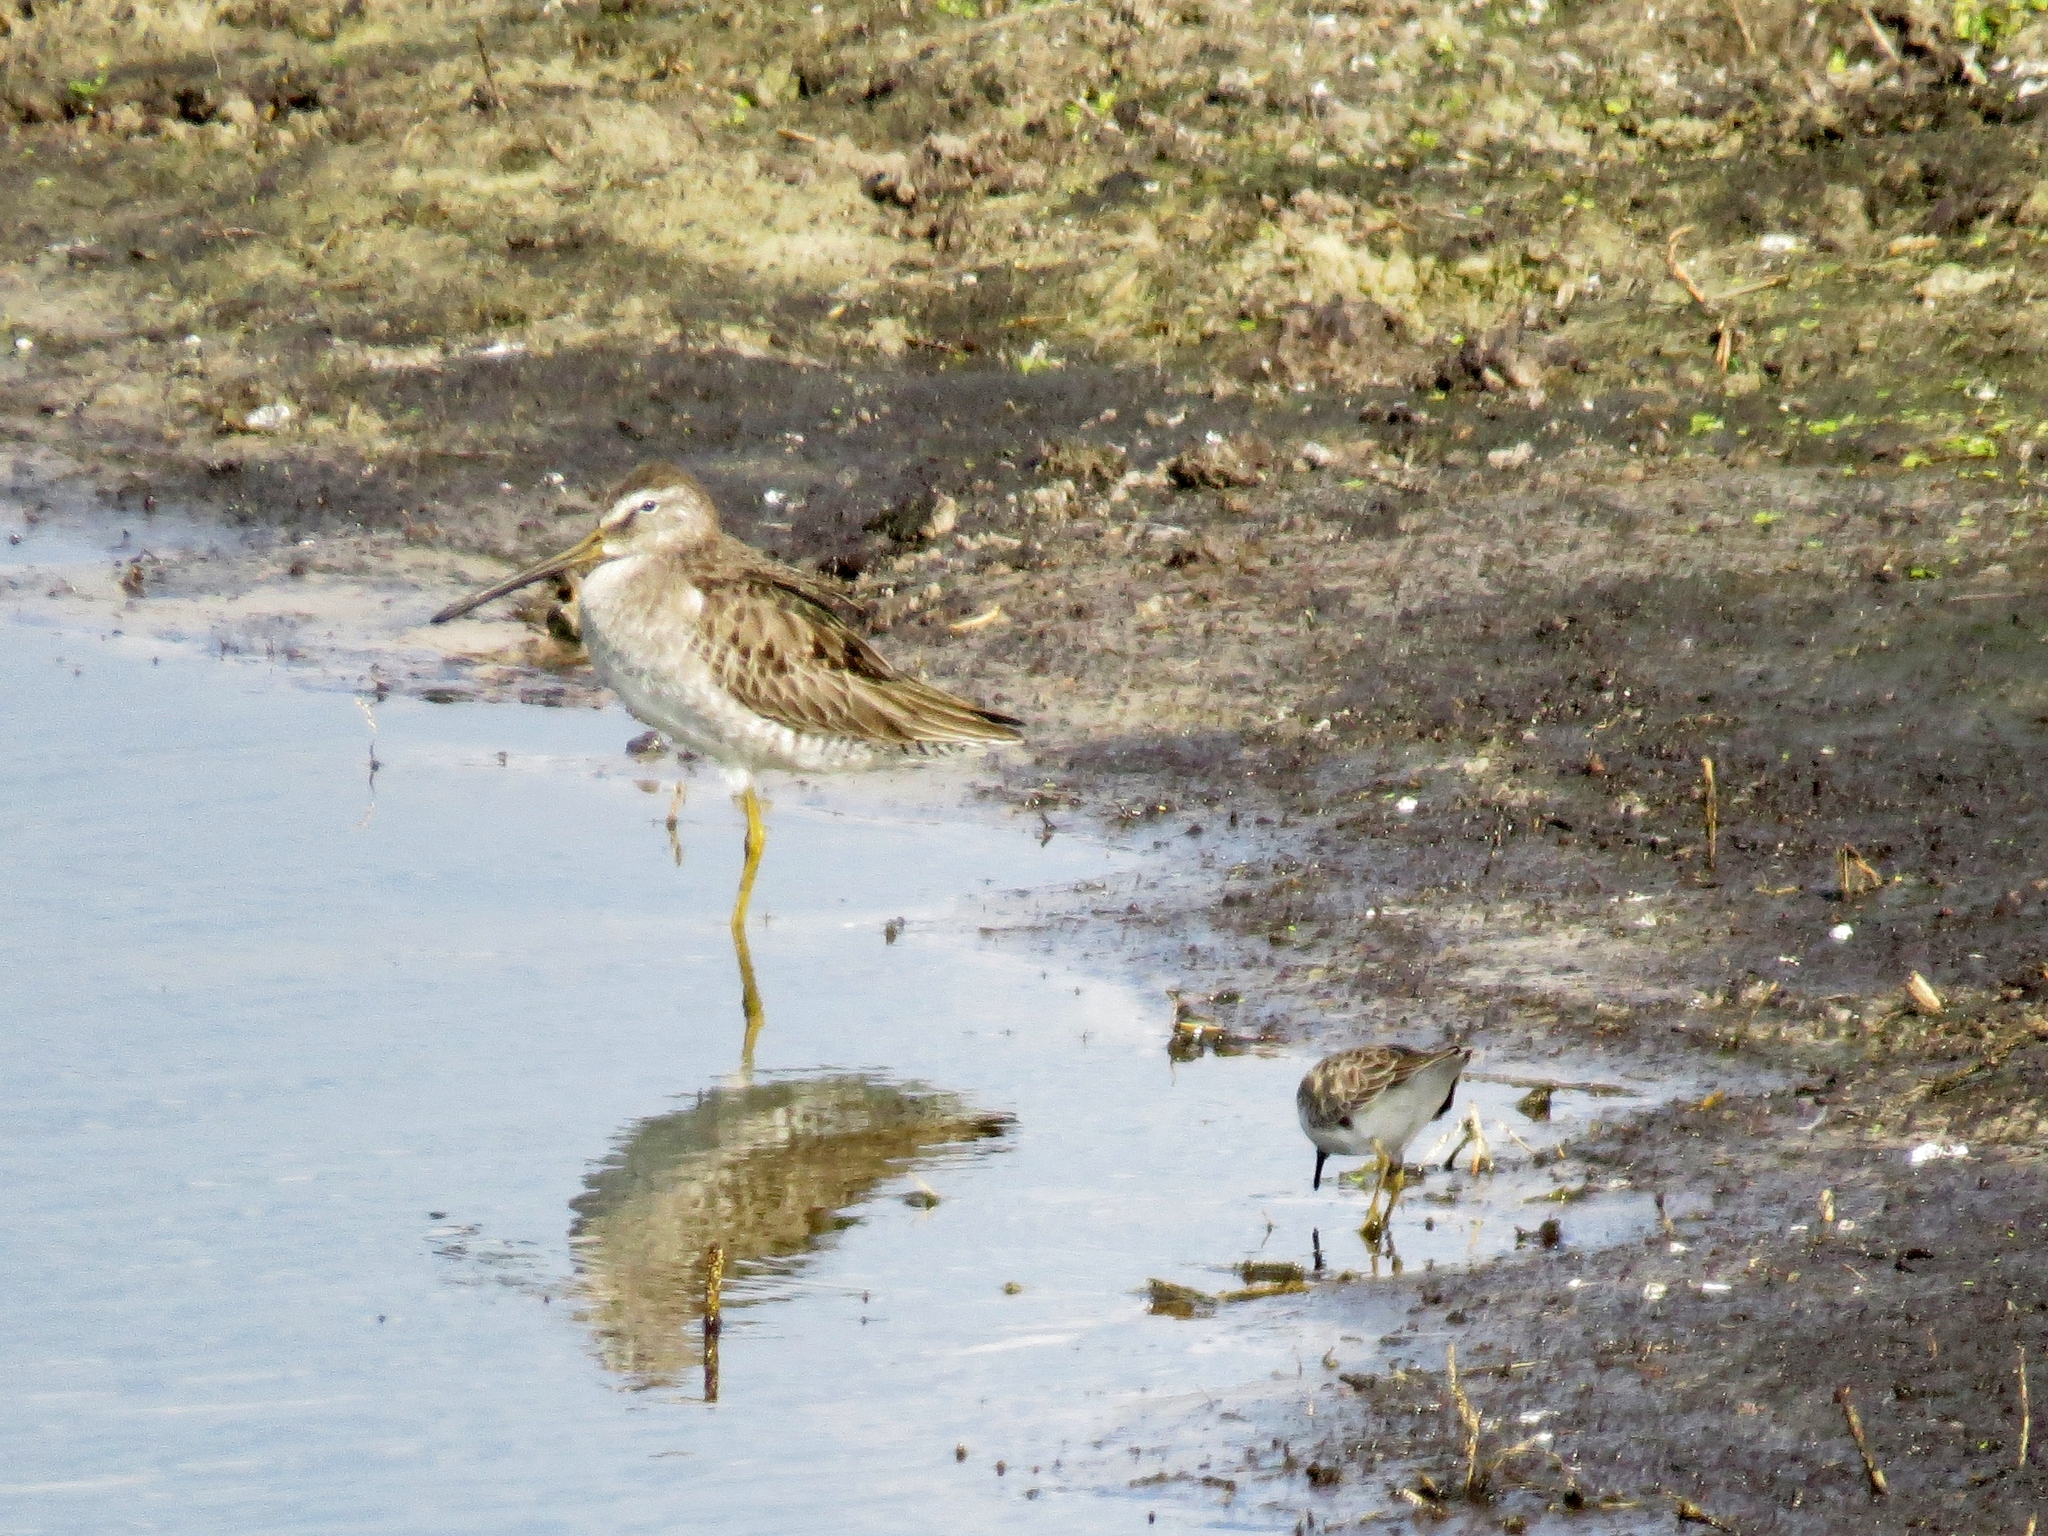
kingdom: Animalia
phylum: Chordata
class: Aves
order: Charadriiformes
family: Scolopacidae
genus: Limnodromus
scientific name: Limnodromus scolopaceus
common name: Long-billed dowitcher
